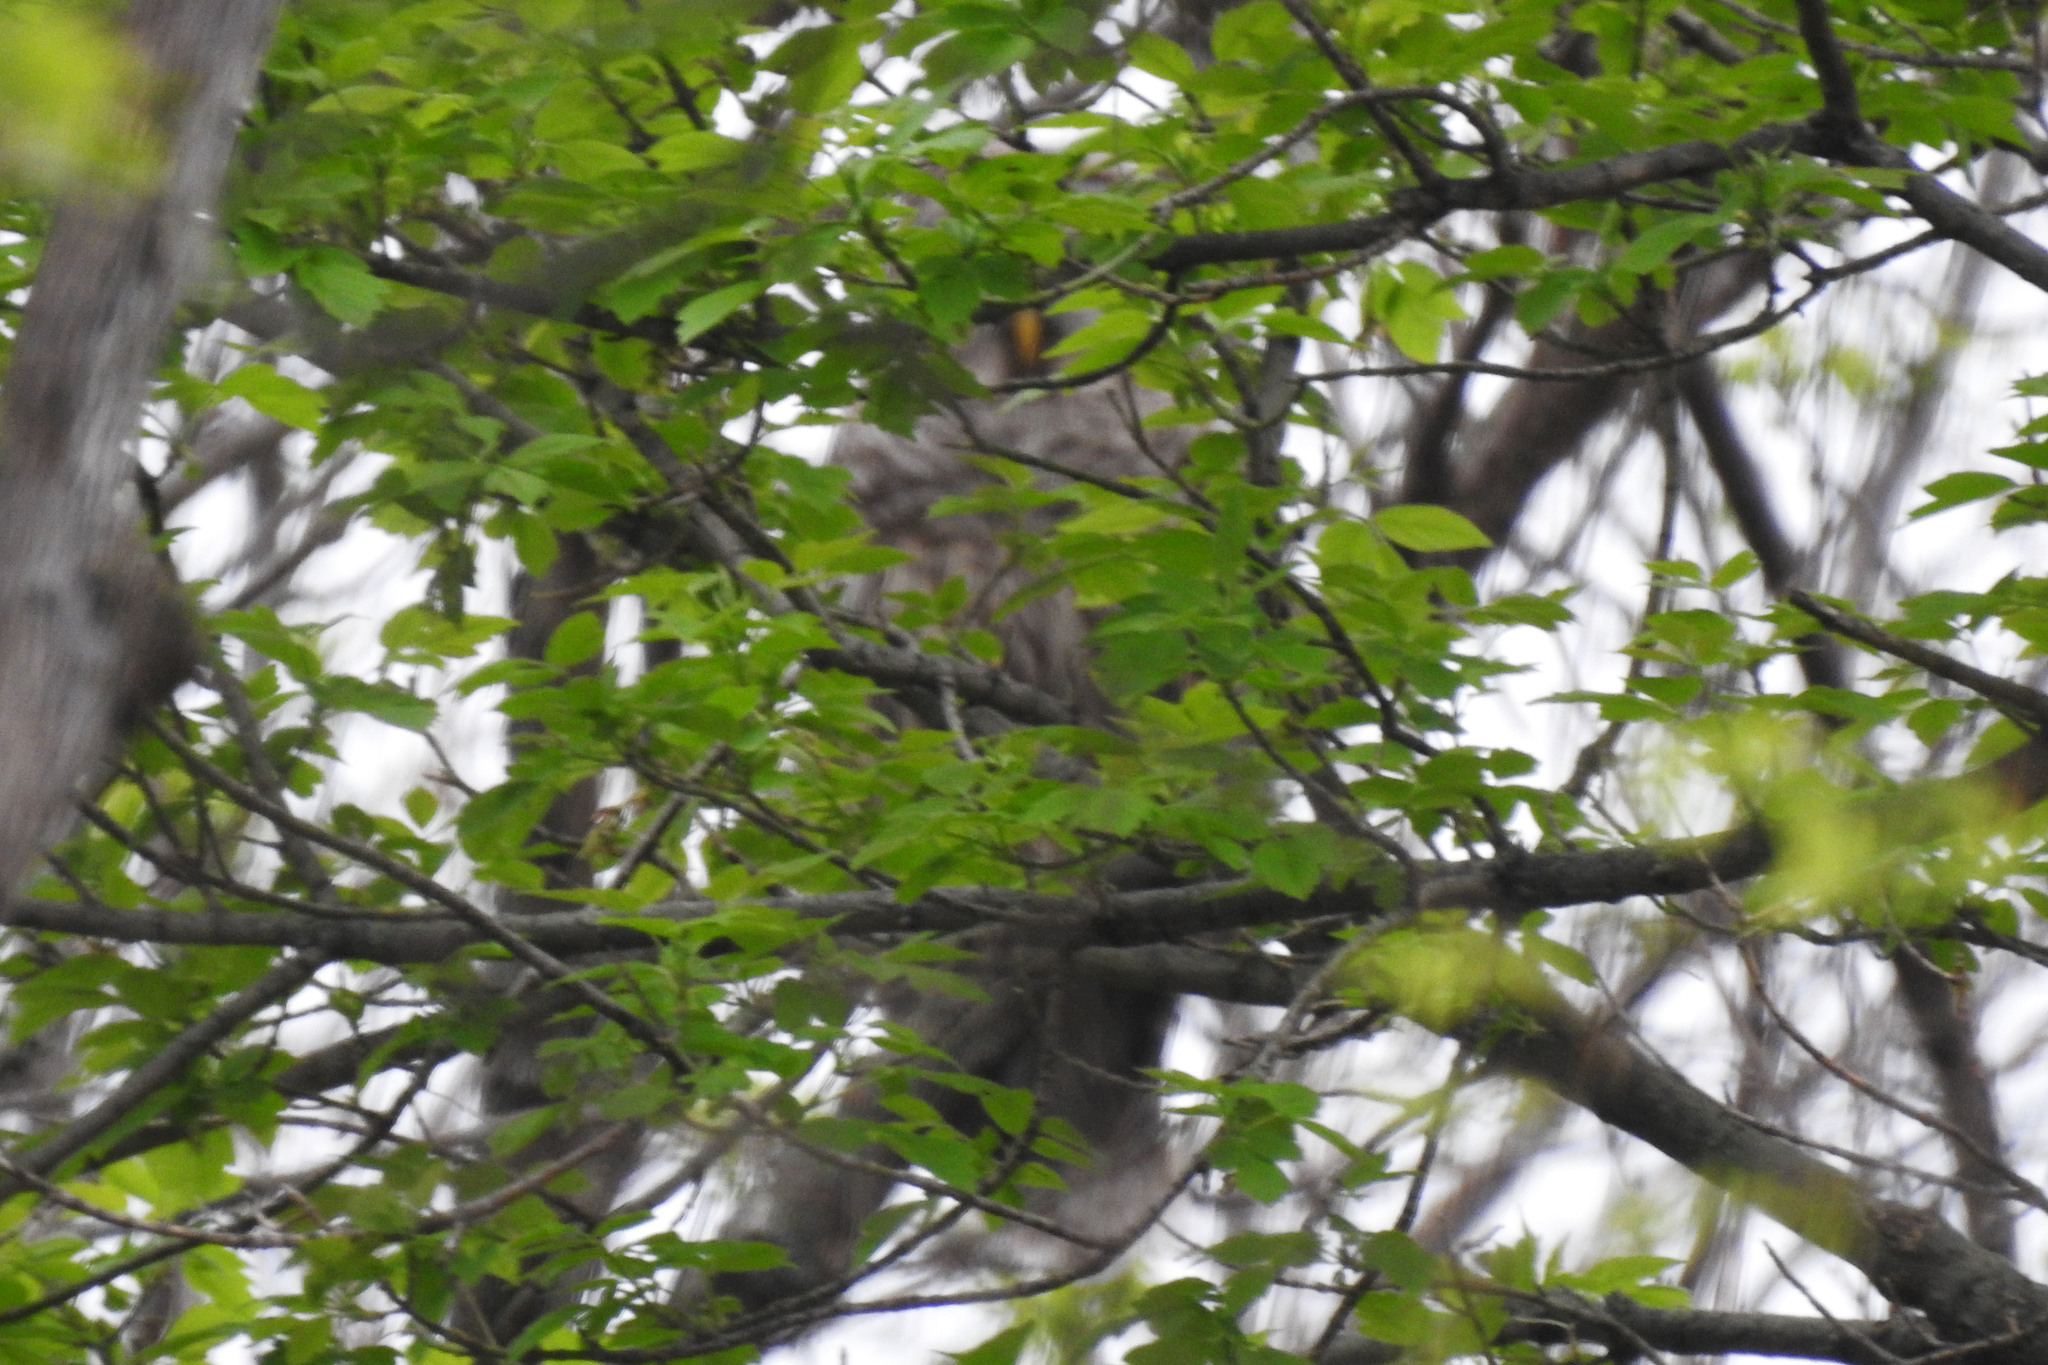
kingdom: Animalia
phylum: Chordata
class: Aves
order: Strigiformes
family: Strigidae
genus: Strix
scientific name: Strix varia
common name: Barred owl
